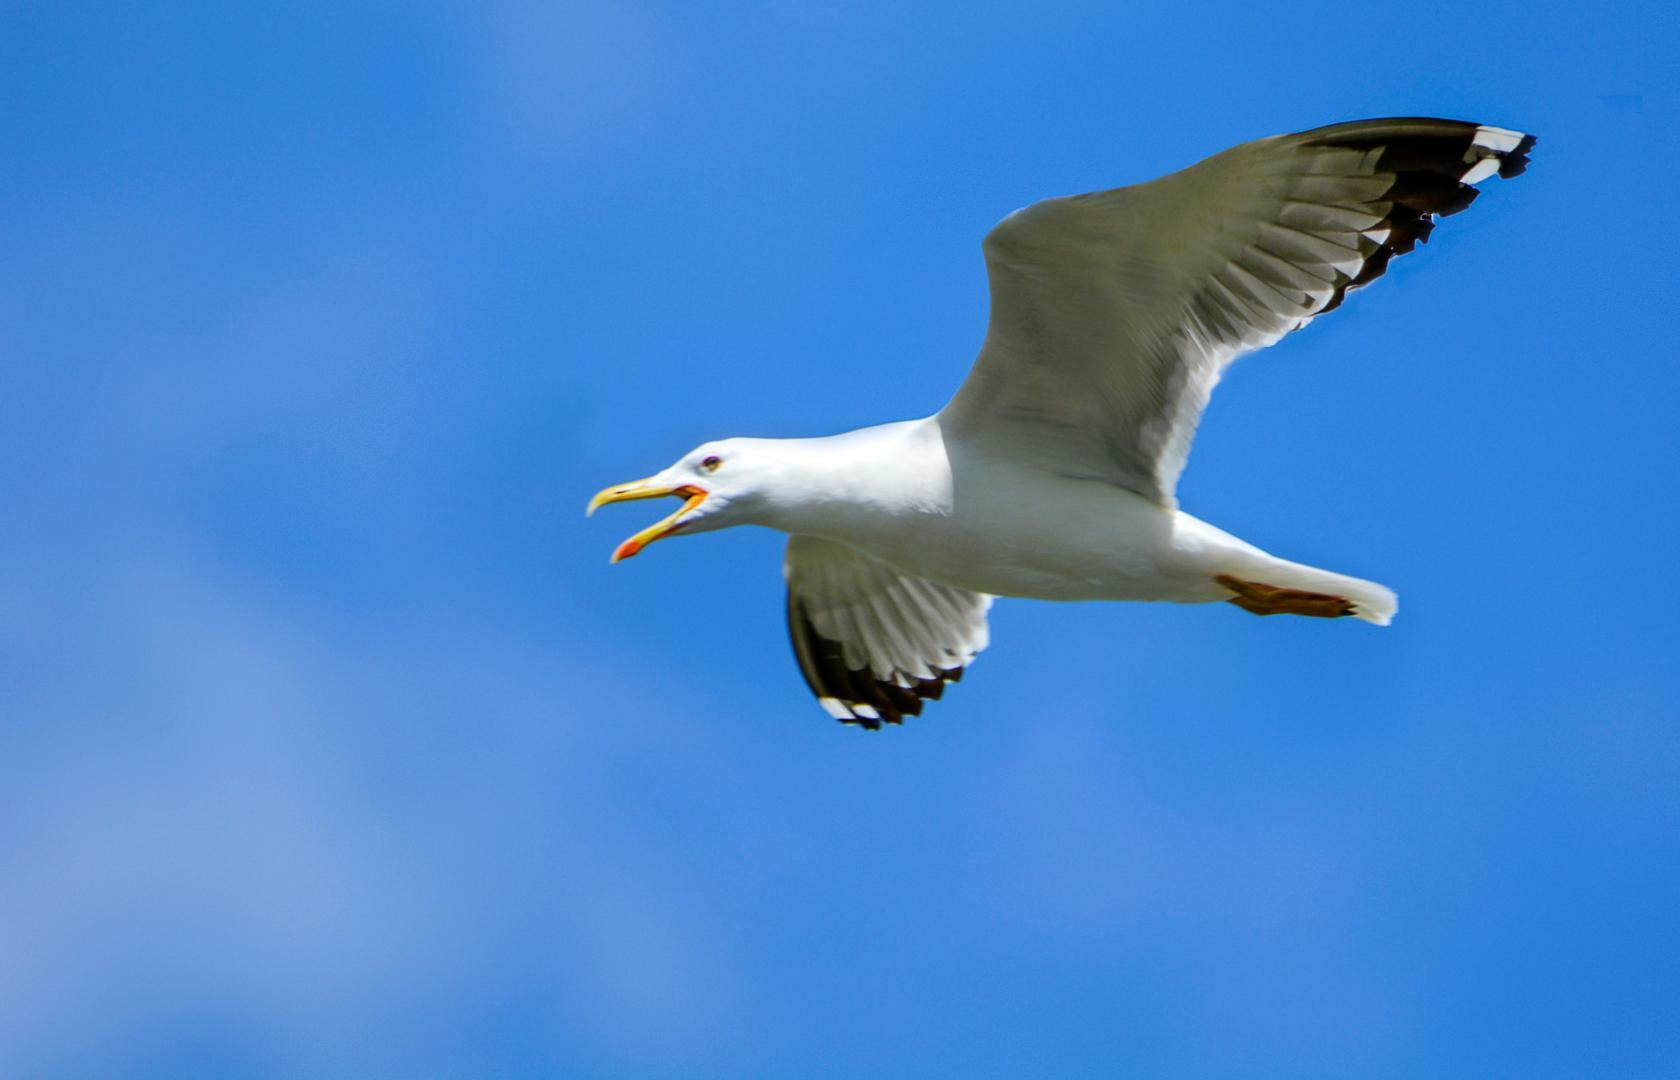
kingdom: Animalia
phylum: Chordata
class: Aves
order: Charadriiformes
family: Laridae
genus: Larus
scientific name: Larus fuscus
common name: Lesser black-backed gull
